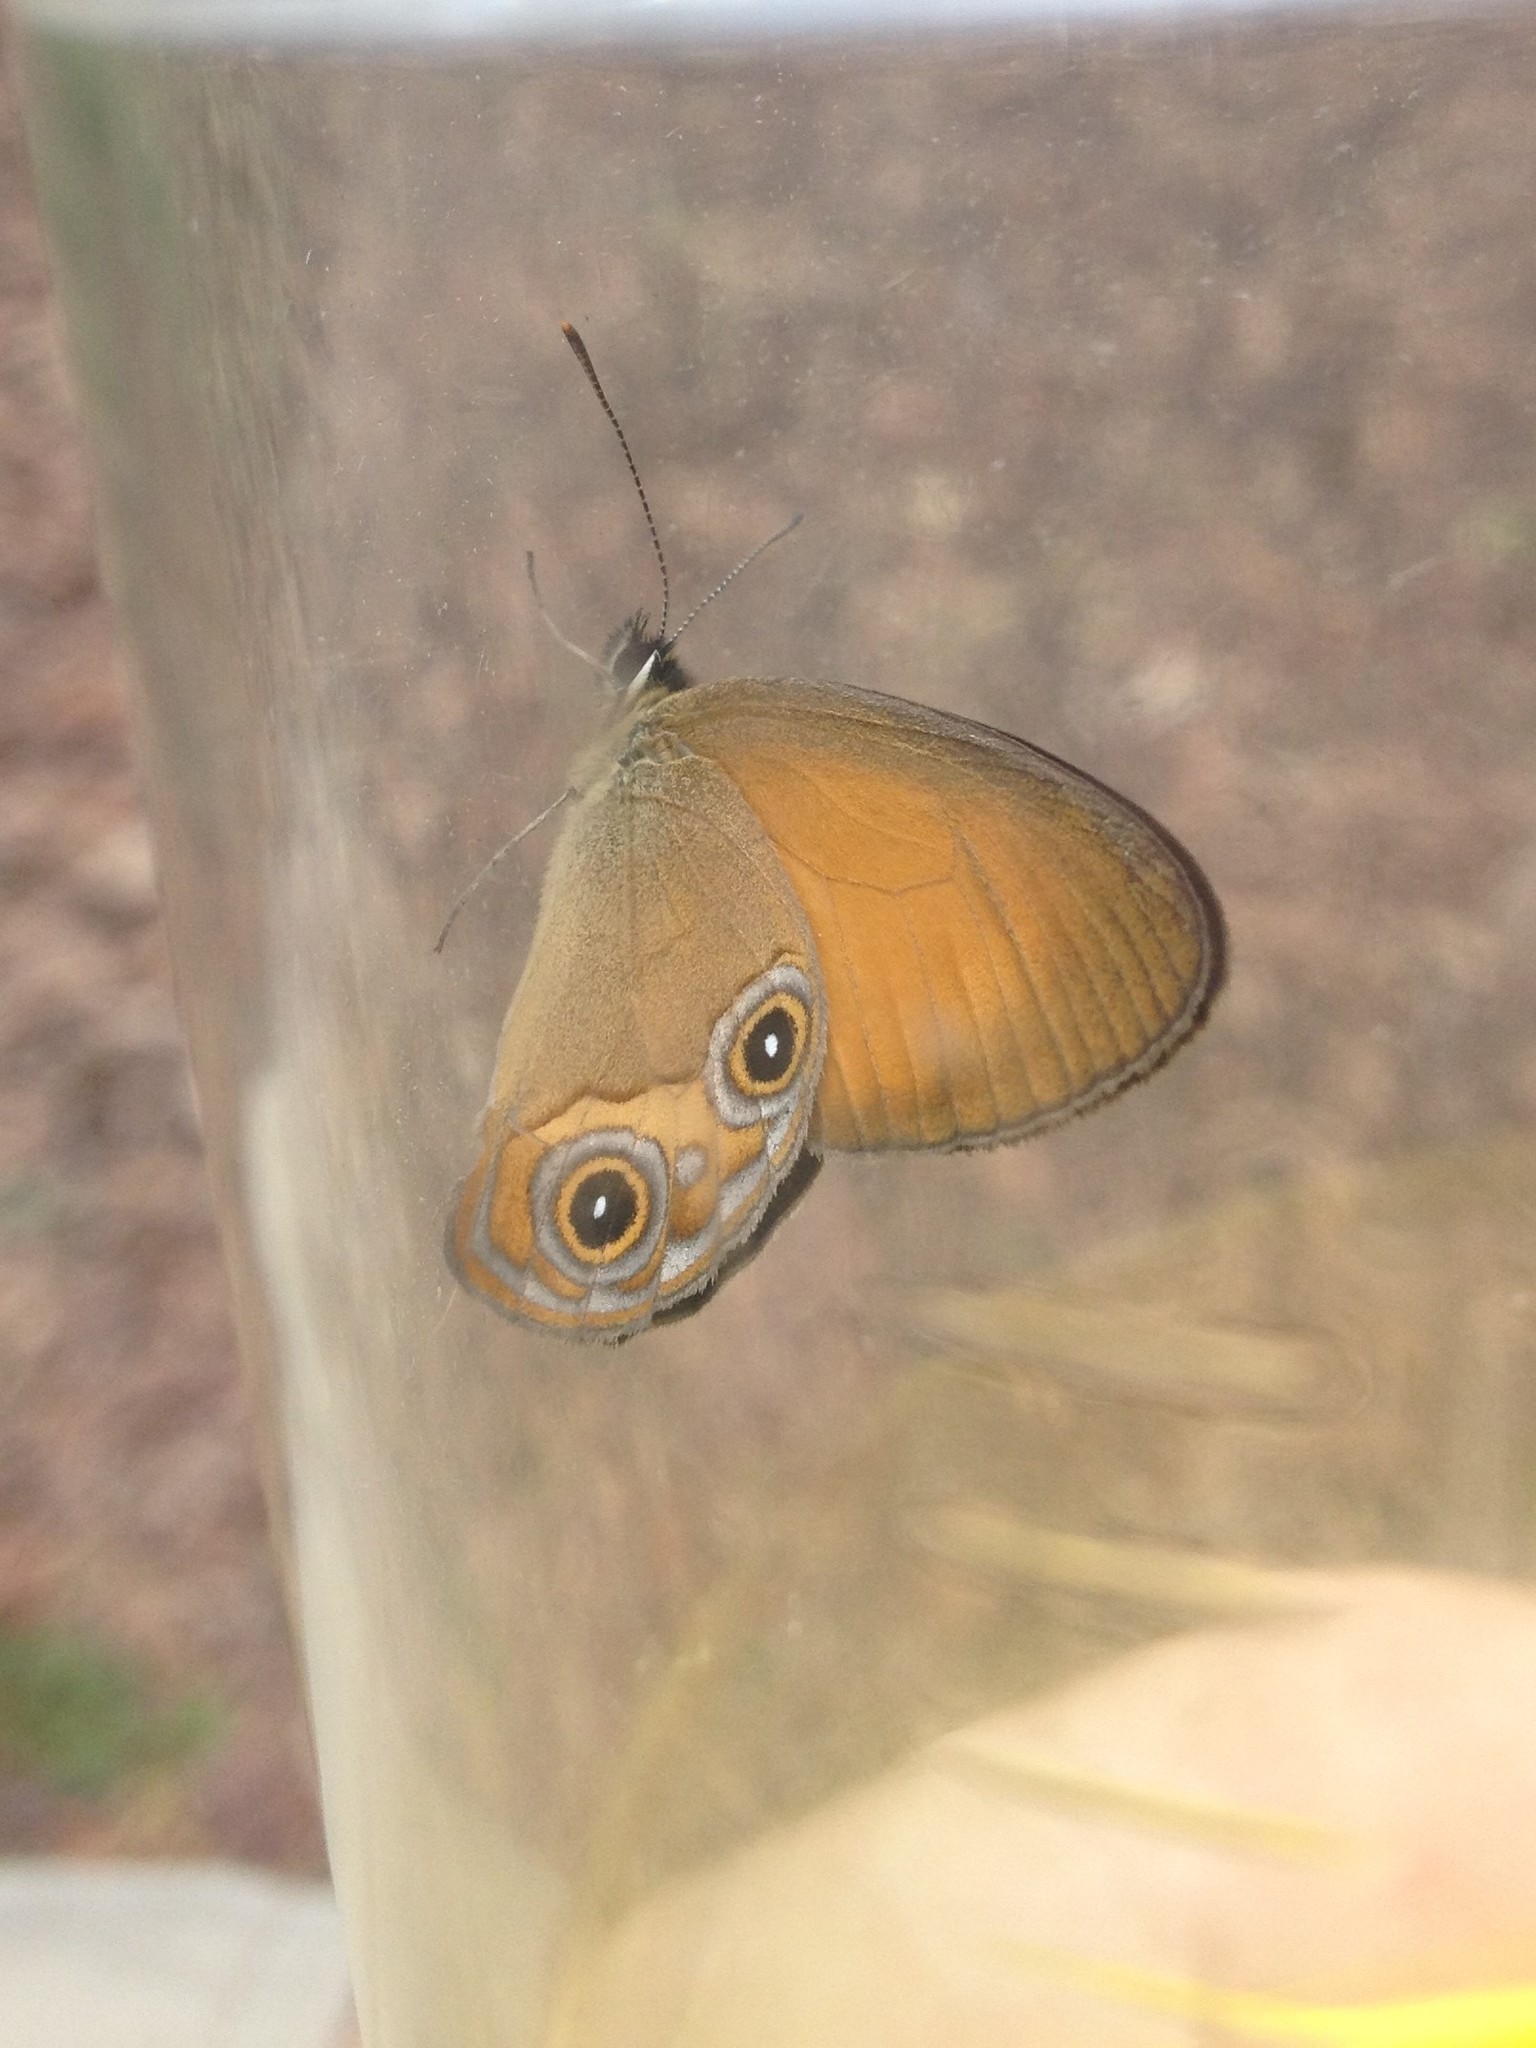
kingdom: Animalia
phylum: Arthropoda
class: Insecta
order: Lepidoptera
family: Nymphalidae
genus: Hypocysta
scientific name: Hypocysta adiante
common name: Orange ringlet
